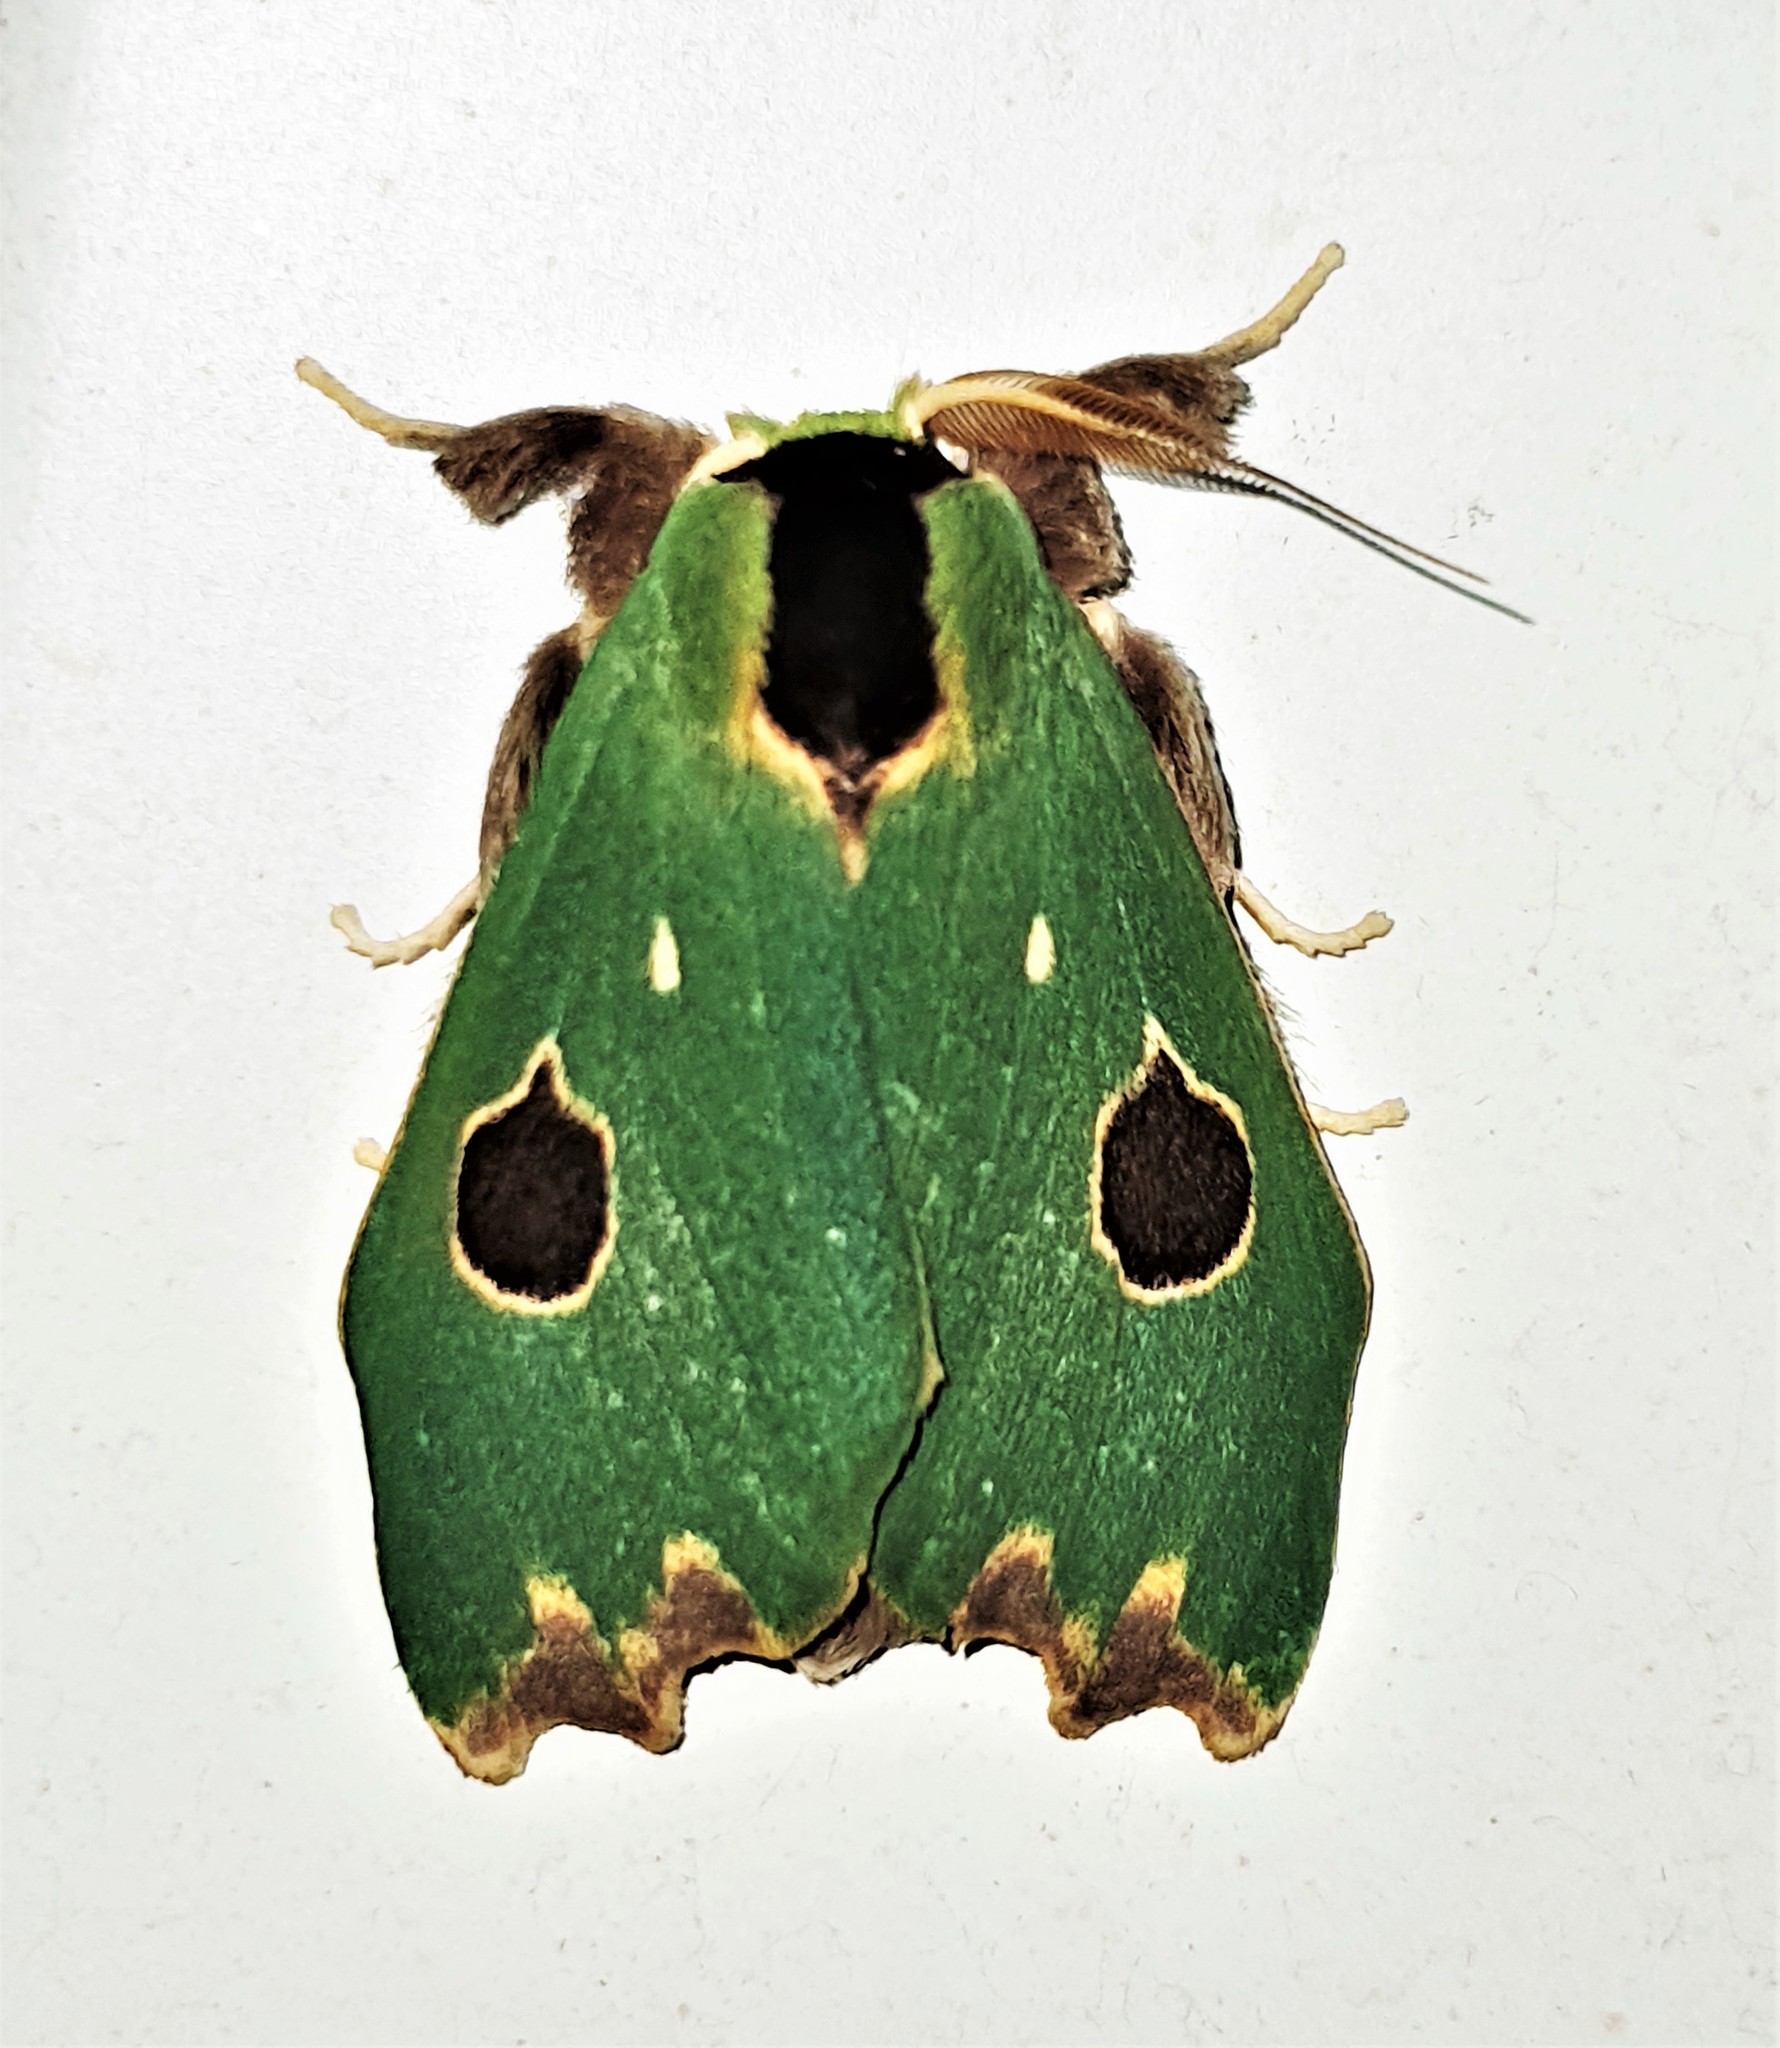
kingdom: Animalia
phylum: Arthropoda
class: Insecta
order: Lepidoptera
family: Notodontidae
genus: Rosema
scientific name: Rosema maximepunctum
